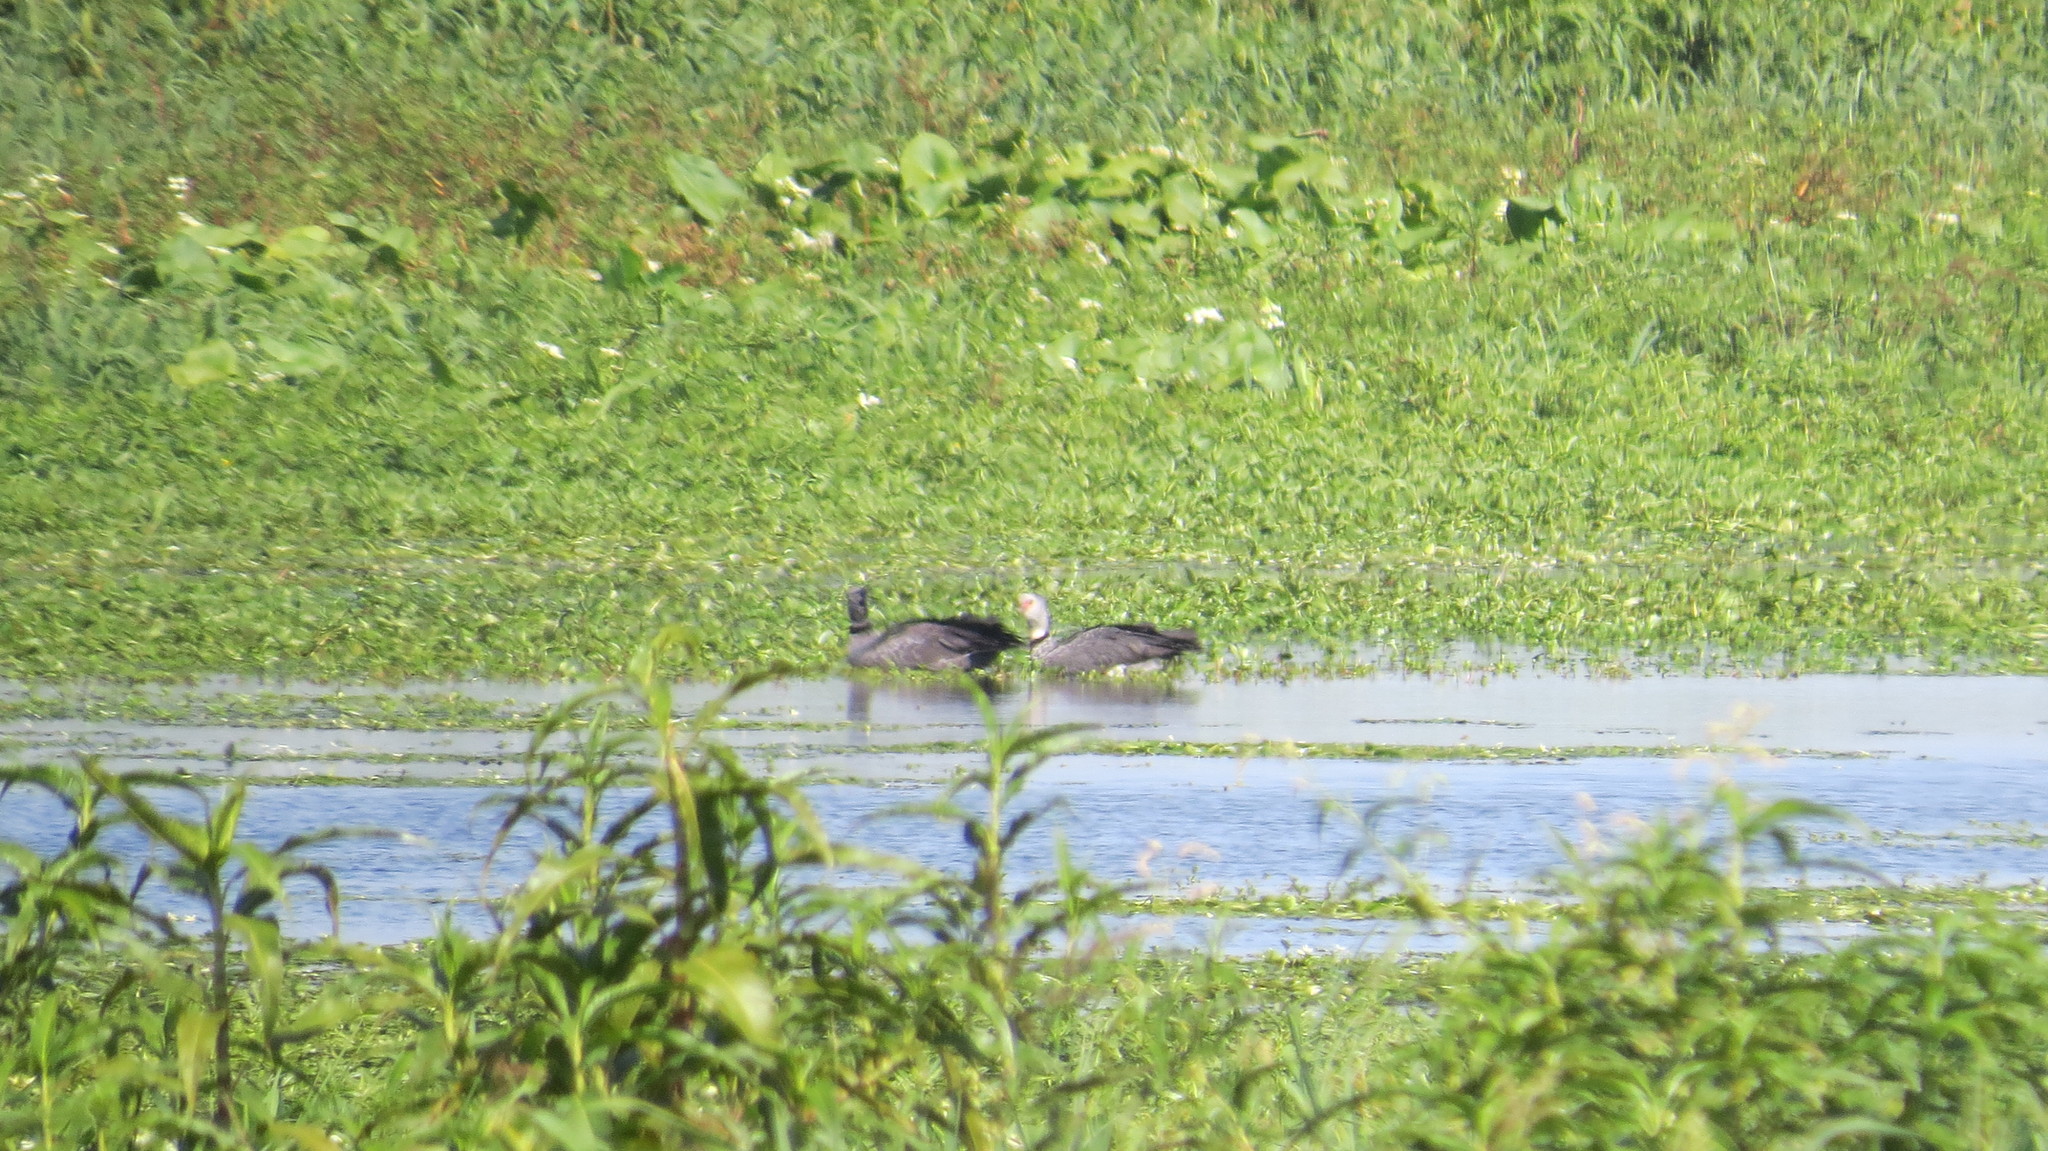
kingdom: Animalia
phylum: Chordata
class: Aves
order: Anseriformes
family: Anhimidae
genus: Chauna
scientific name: Chauna torquata
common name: Southern screamer
